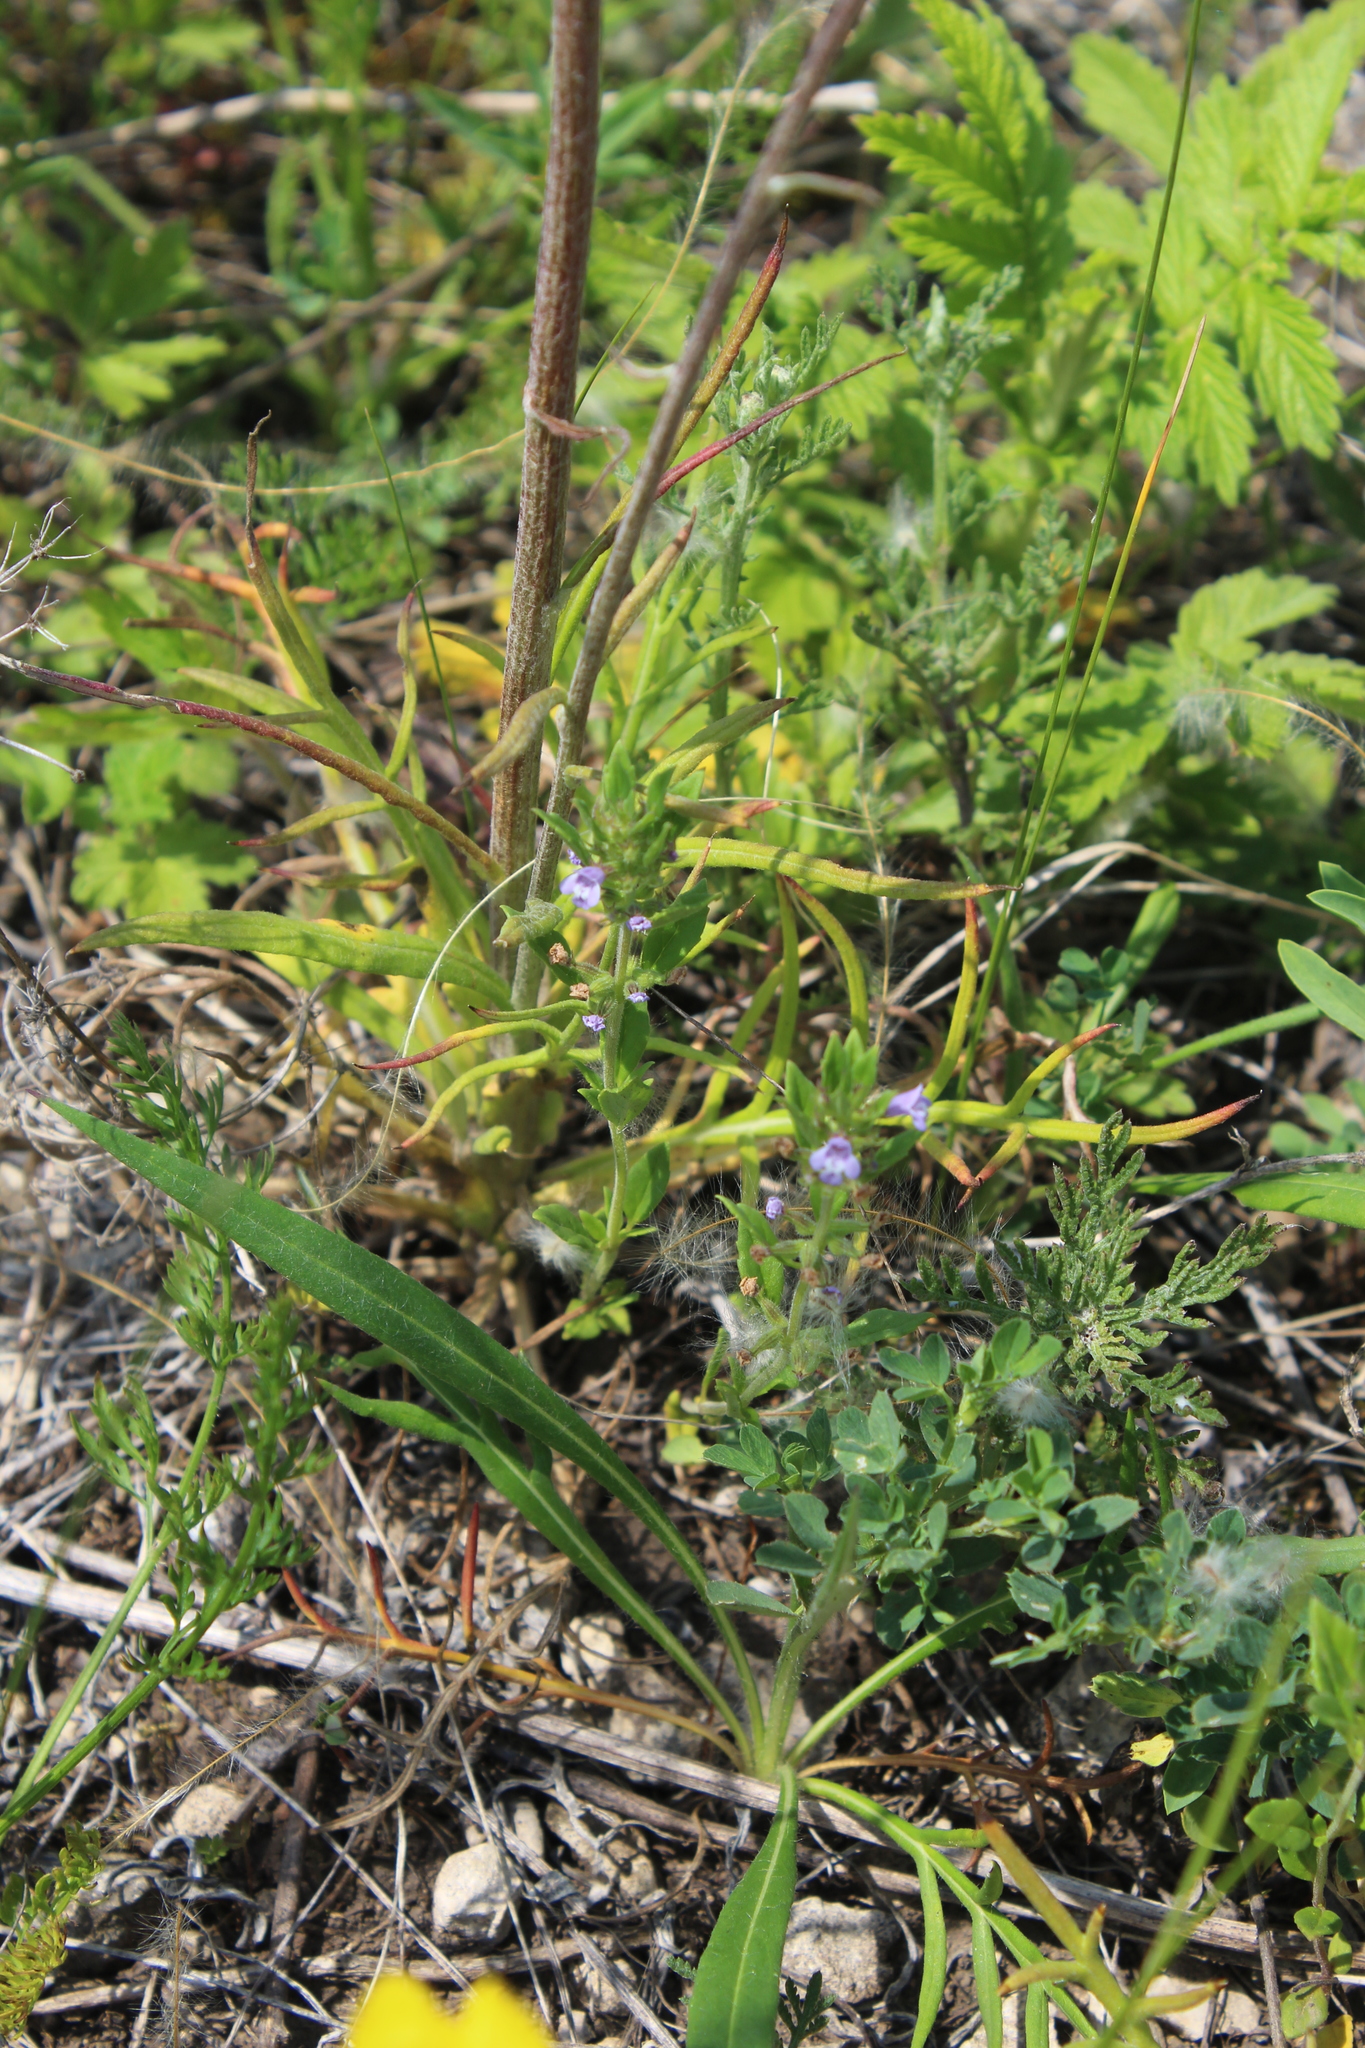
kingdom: Plantae
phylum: Tracheophyta
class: Magnoliopsida
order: Lamiales
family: Lamiaceae
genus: Clinopodium
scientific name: Clinopodium acinos
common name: Basil thyme
